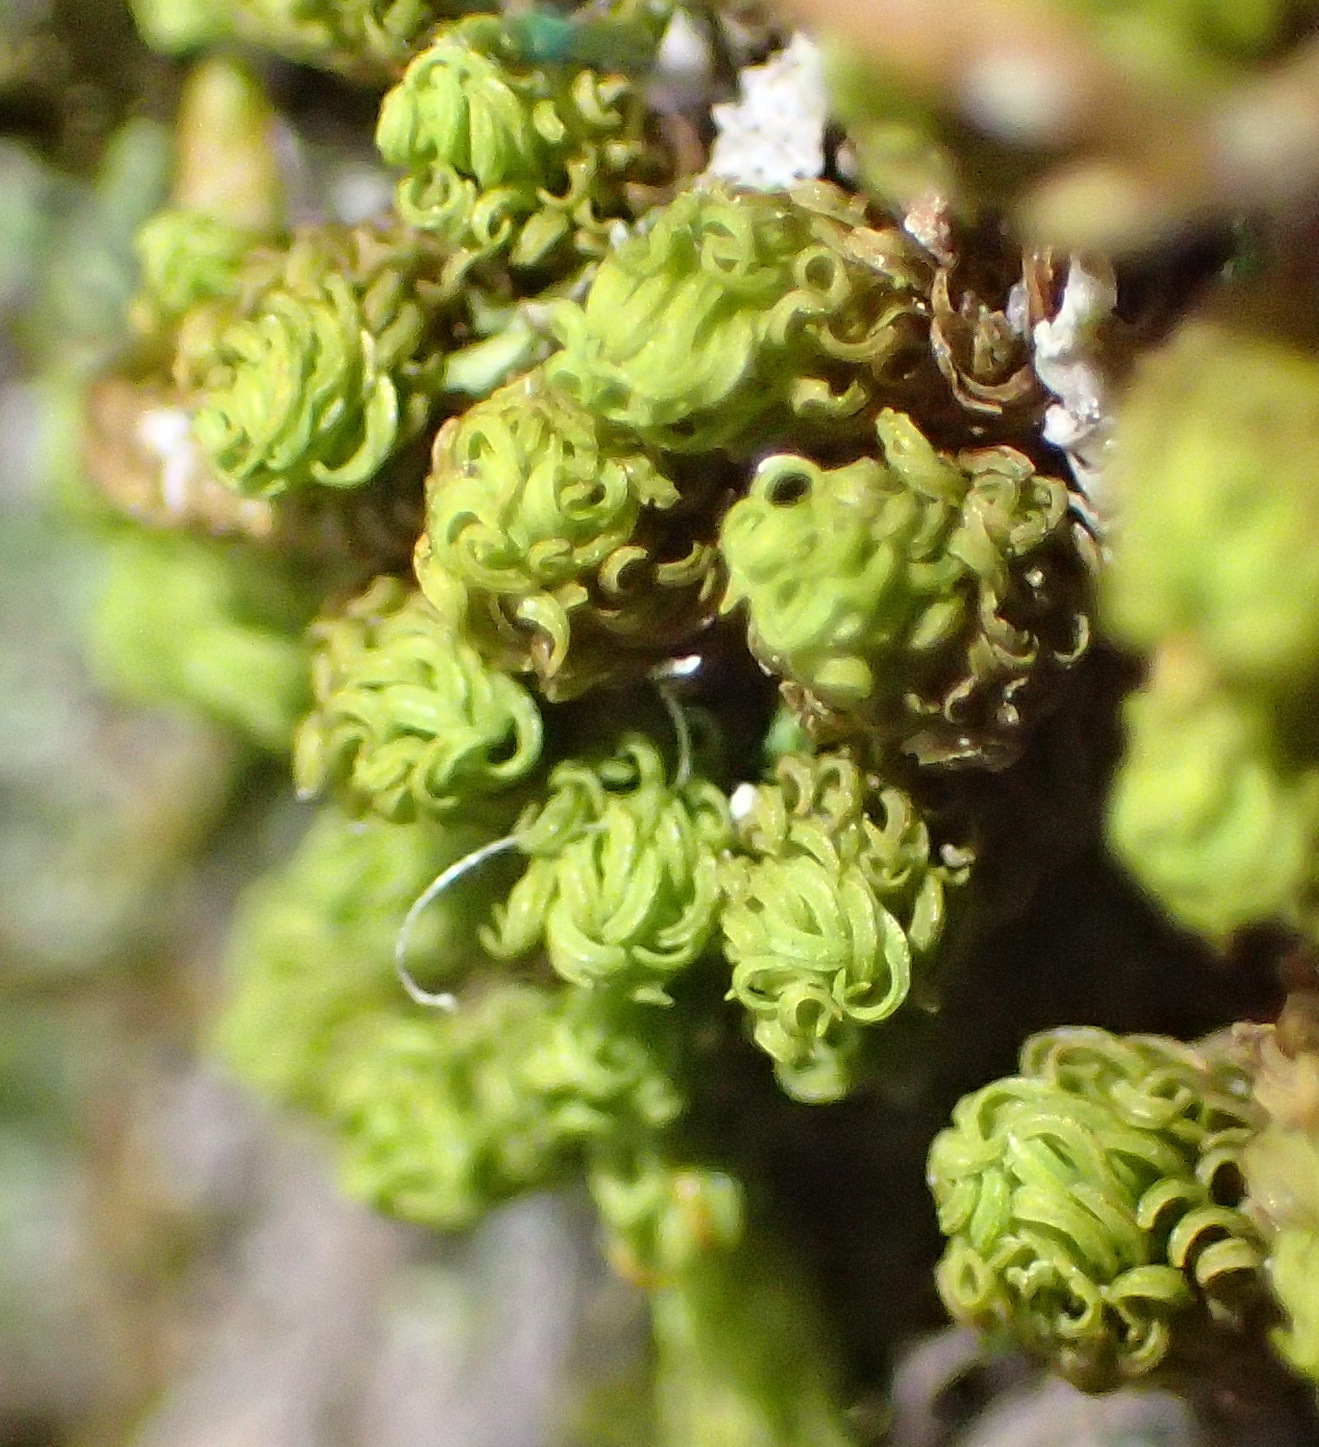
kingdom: Plantae
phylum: Bryophyta
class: Bryopsida
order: Orthotrichales
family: Orthotrichaceae
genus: Macromitrium
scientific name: Macromitrium viticulosum
